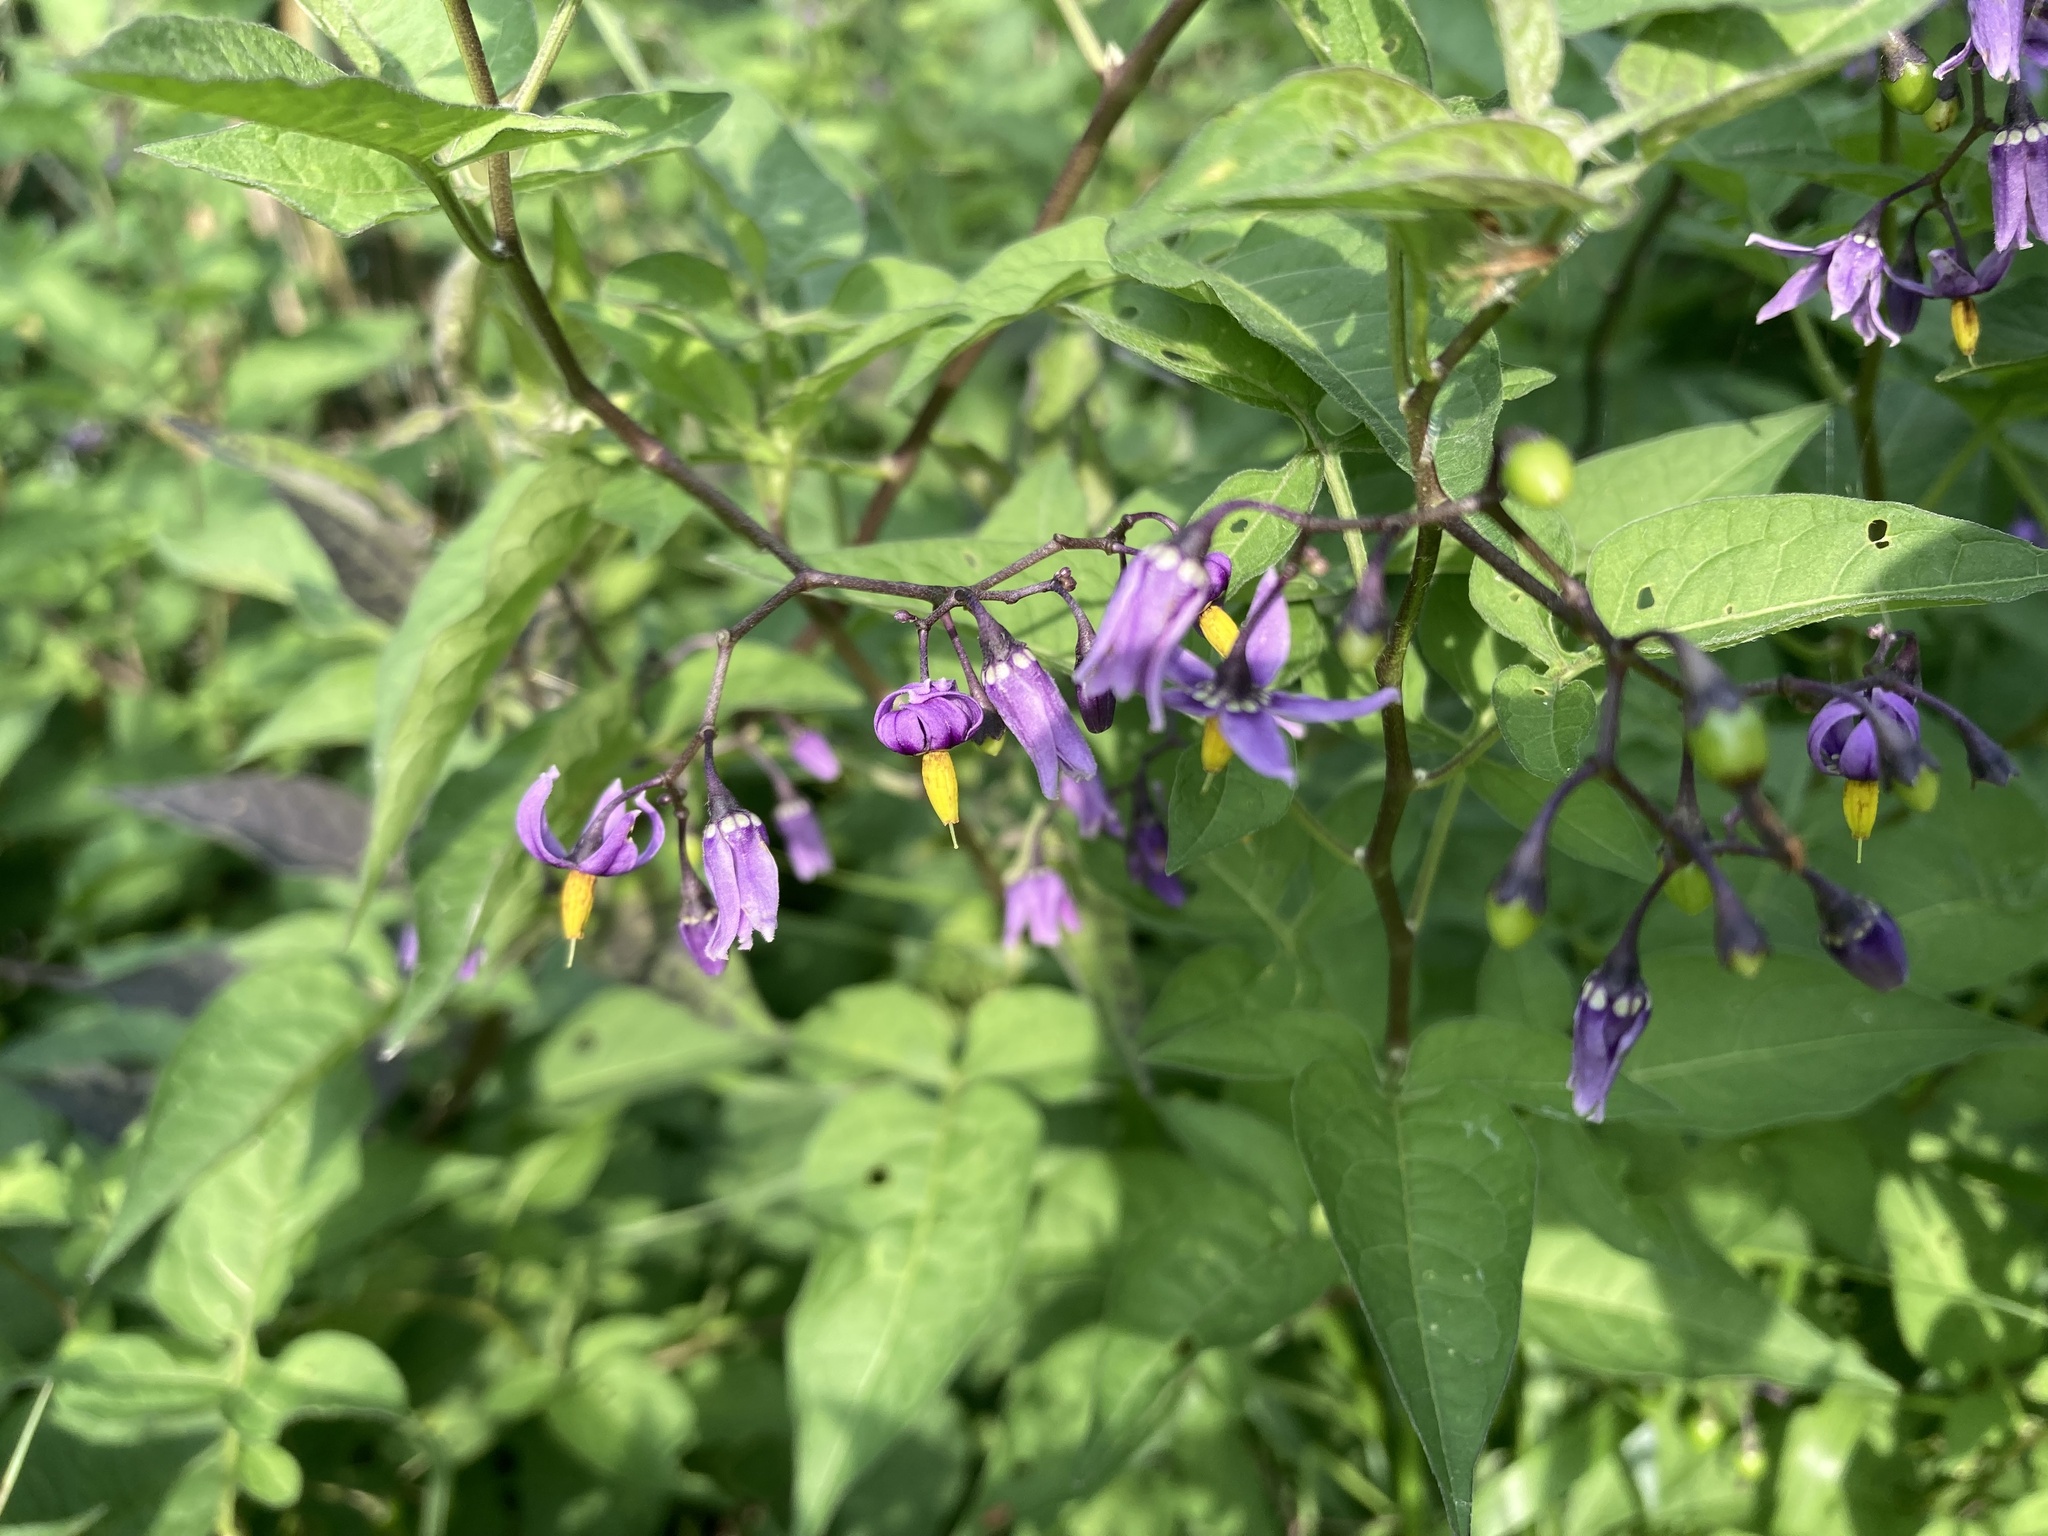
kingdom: Plantae
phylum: Tracheophyta
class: Magnoliopsida
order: Solanales
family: Solanaceae
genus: Solanum
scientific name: Solanum dulcamara
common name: Climbing nightshade
